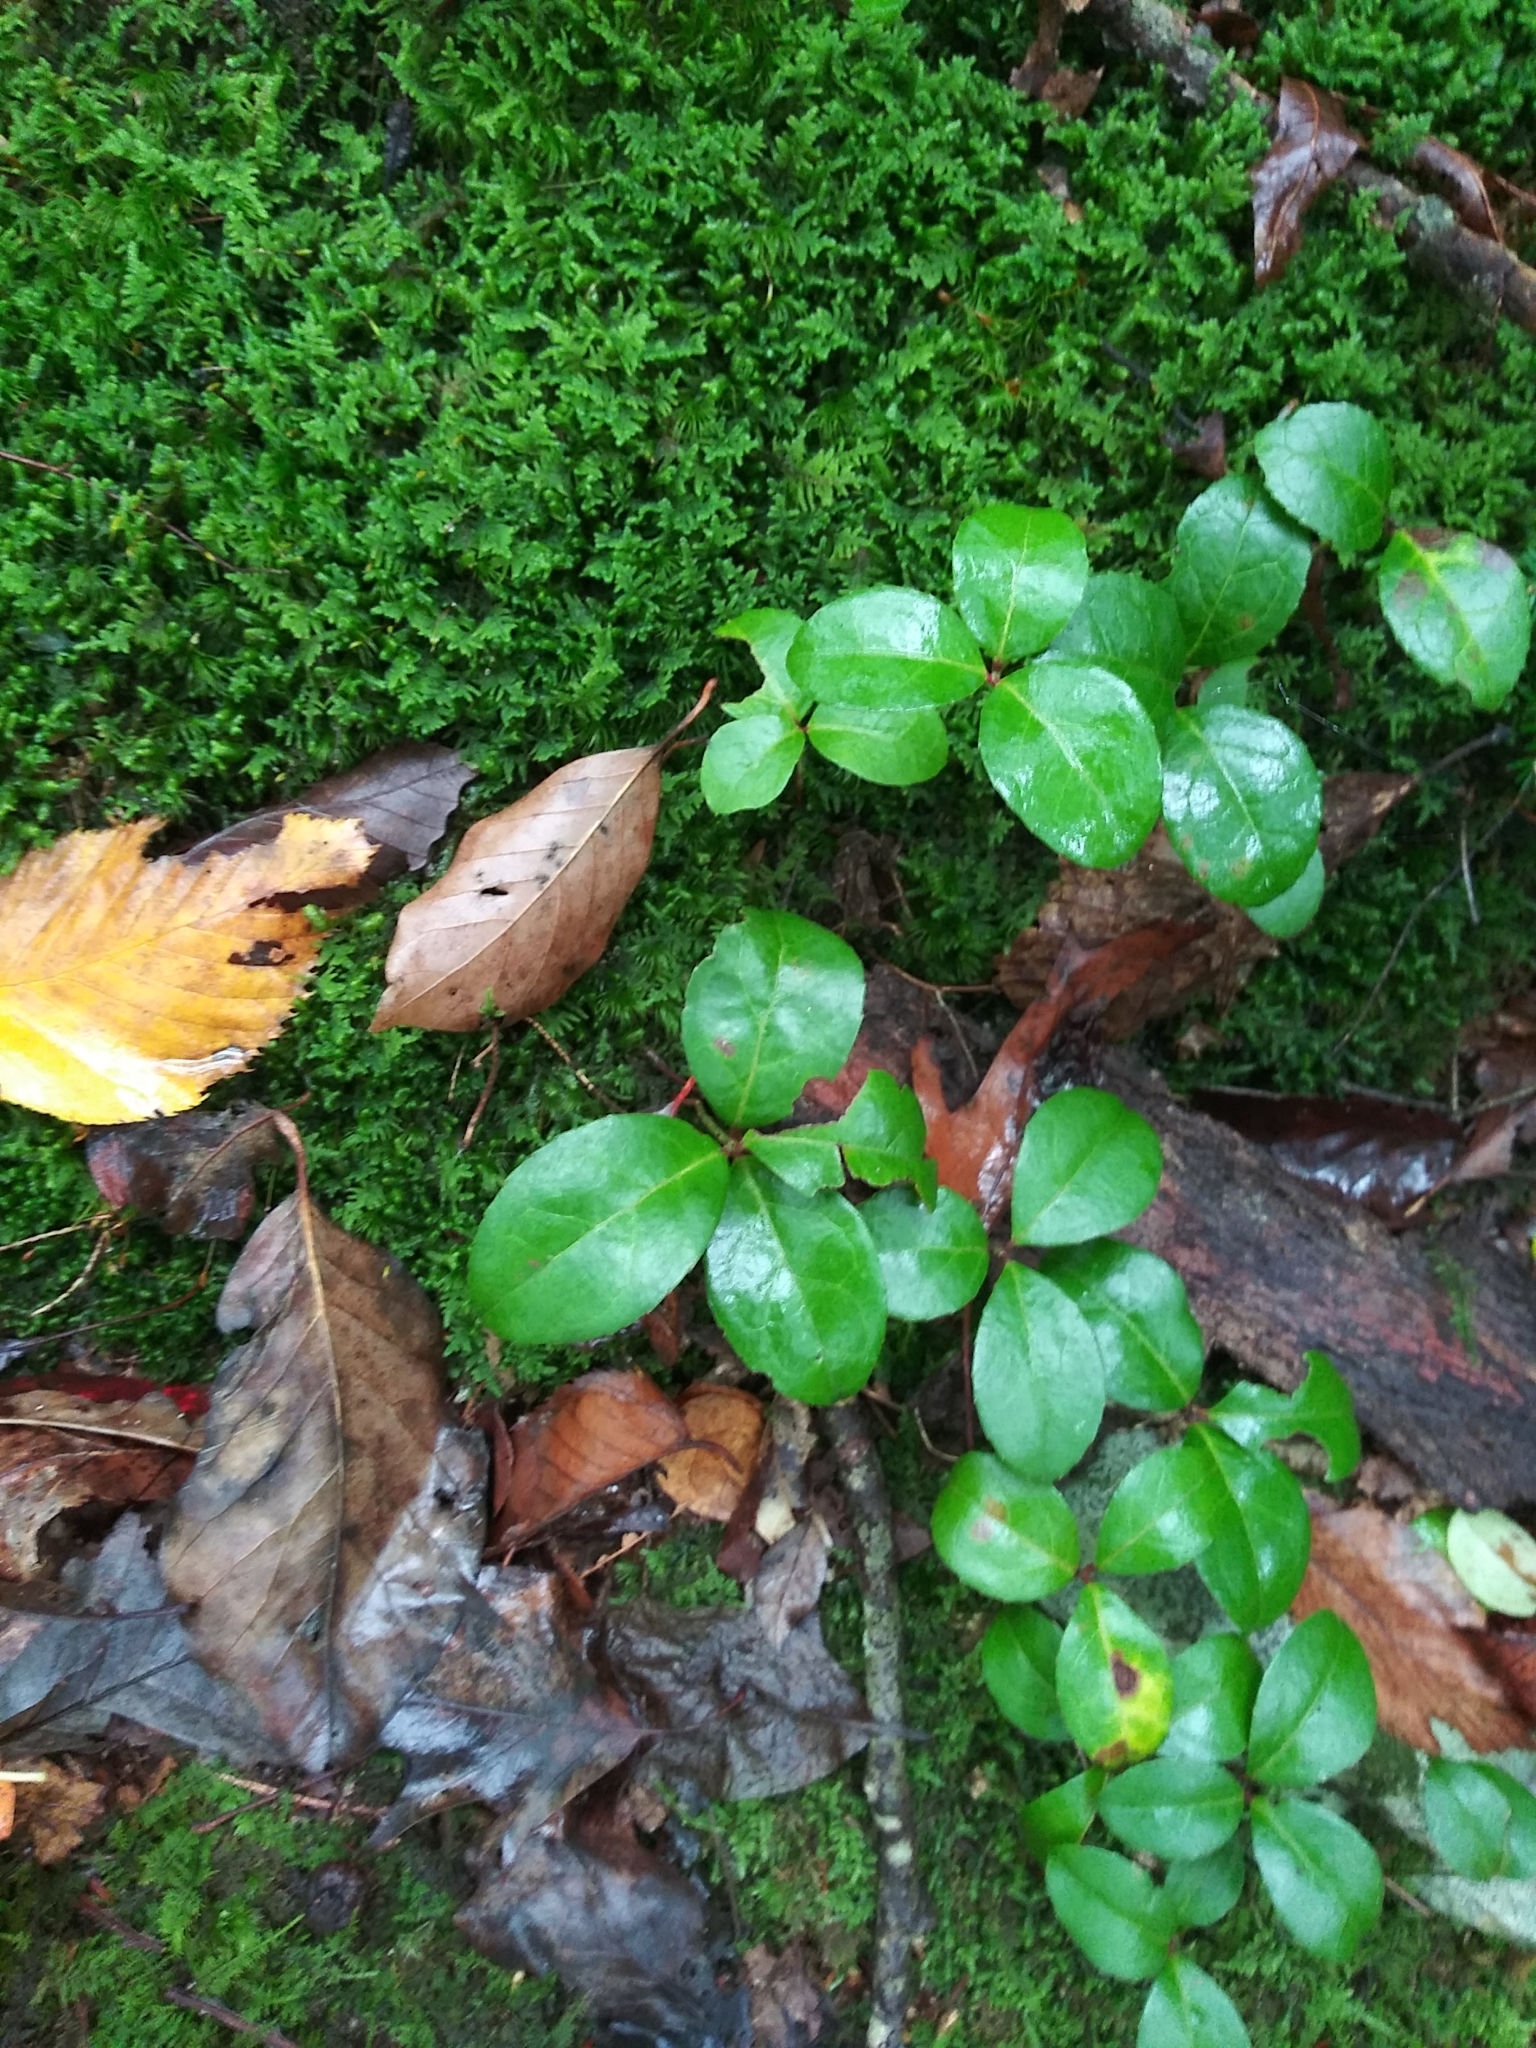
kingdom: Plantae
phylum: Tracheophyta
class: Magnoliopsida
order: Ericales
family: Ericaceae
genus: Gaultheria
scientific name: Gaultheria procumbens
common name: Checkerberry
